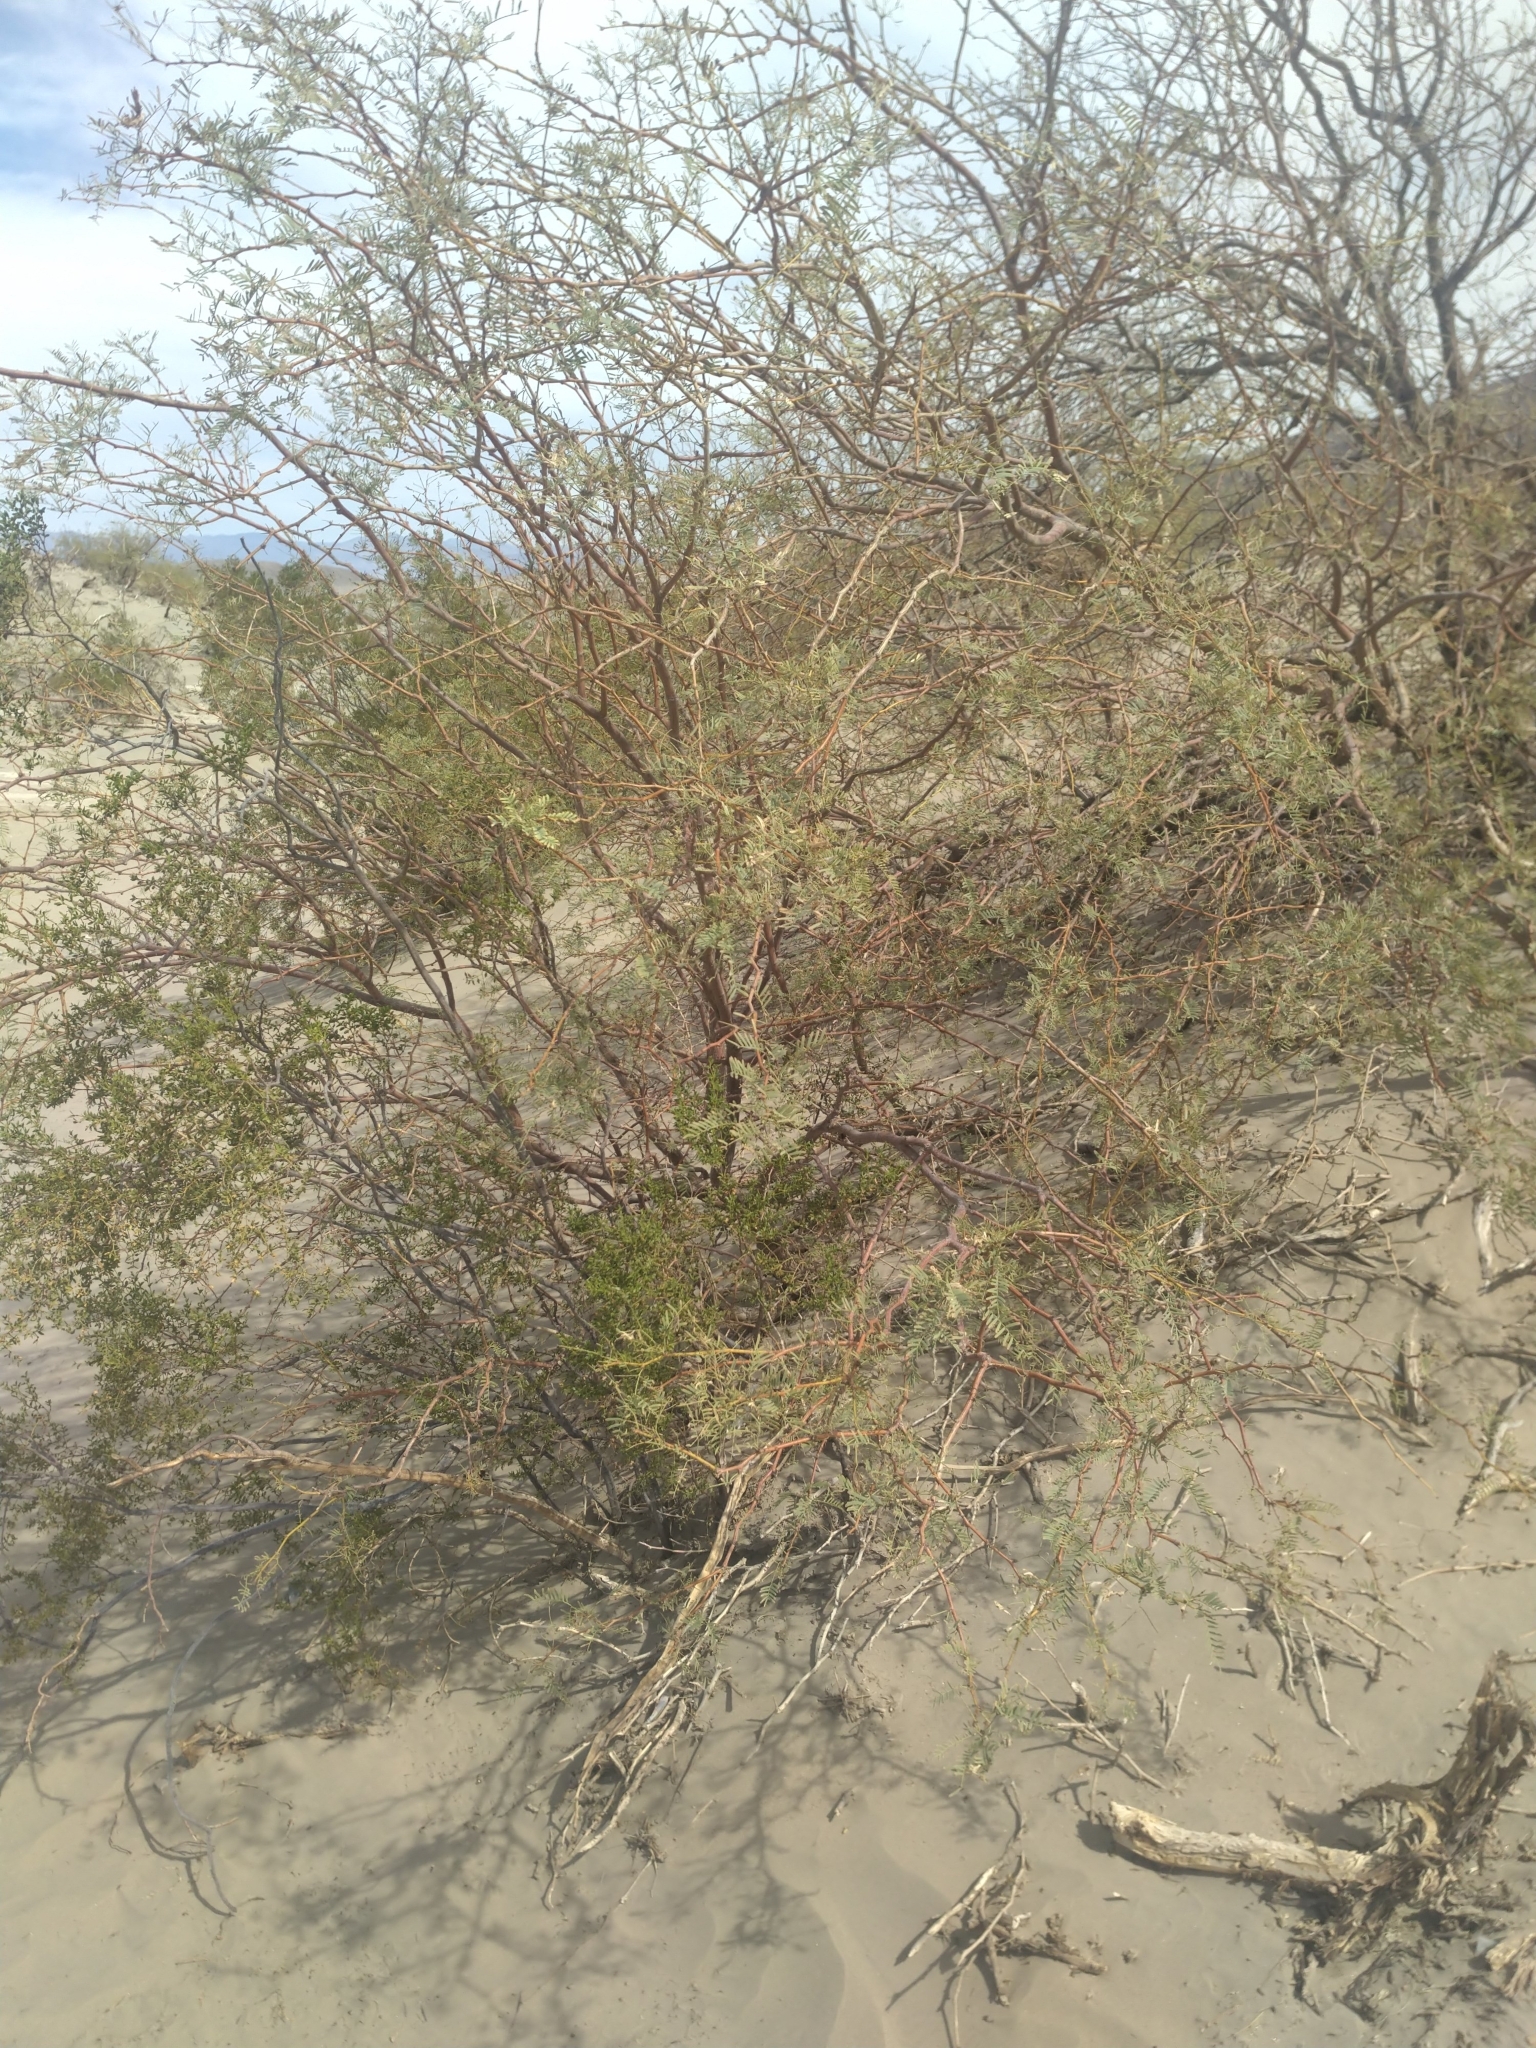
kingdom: Plantae
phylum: Tracheophyta
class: Magnoliopsida
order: Fabales
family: Fabaceae
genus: Prosopis
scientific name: Prosopis pubescens
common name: Screw-bean
